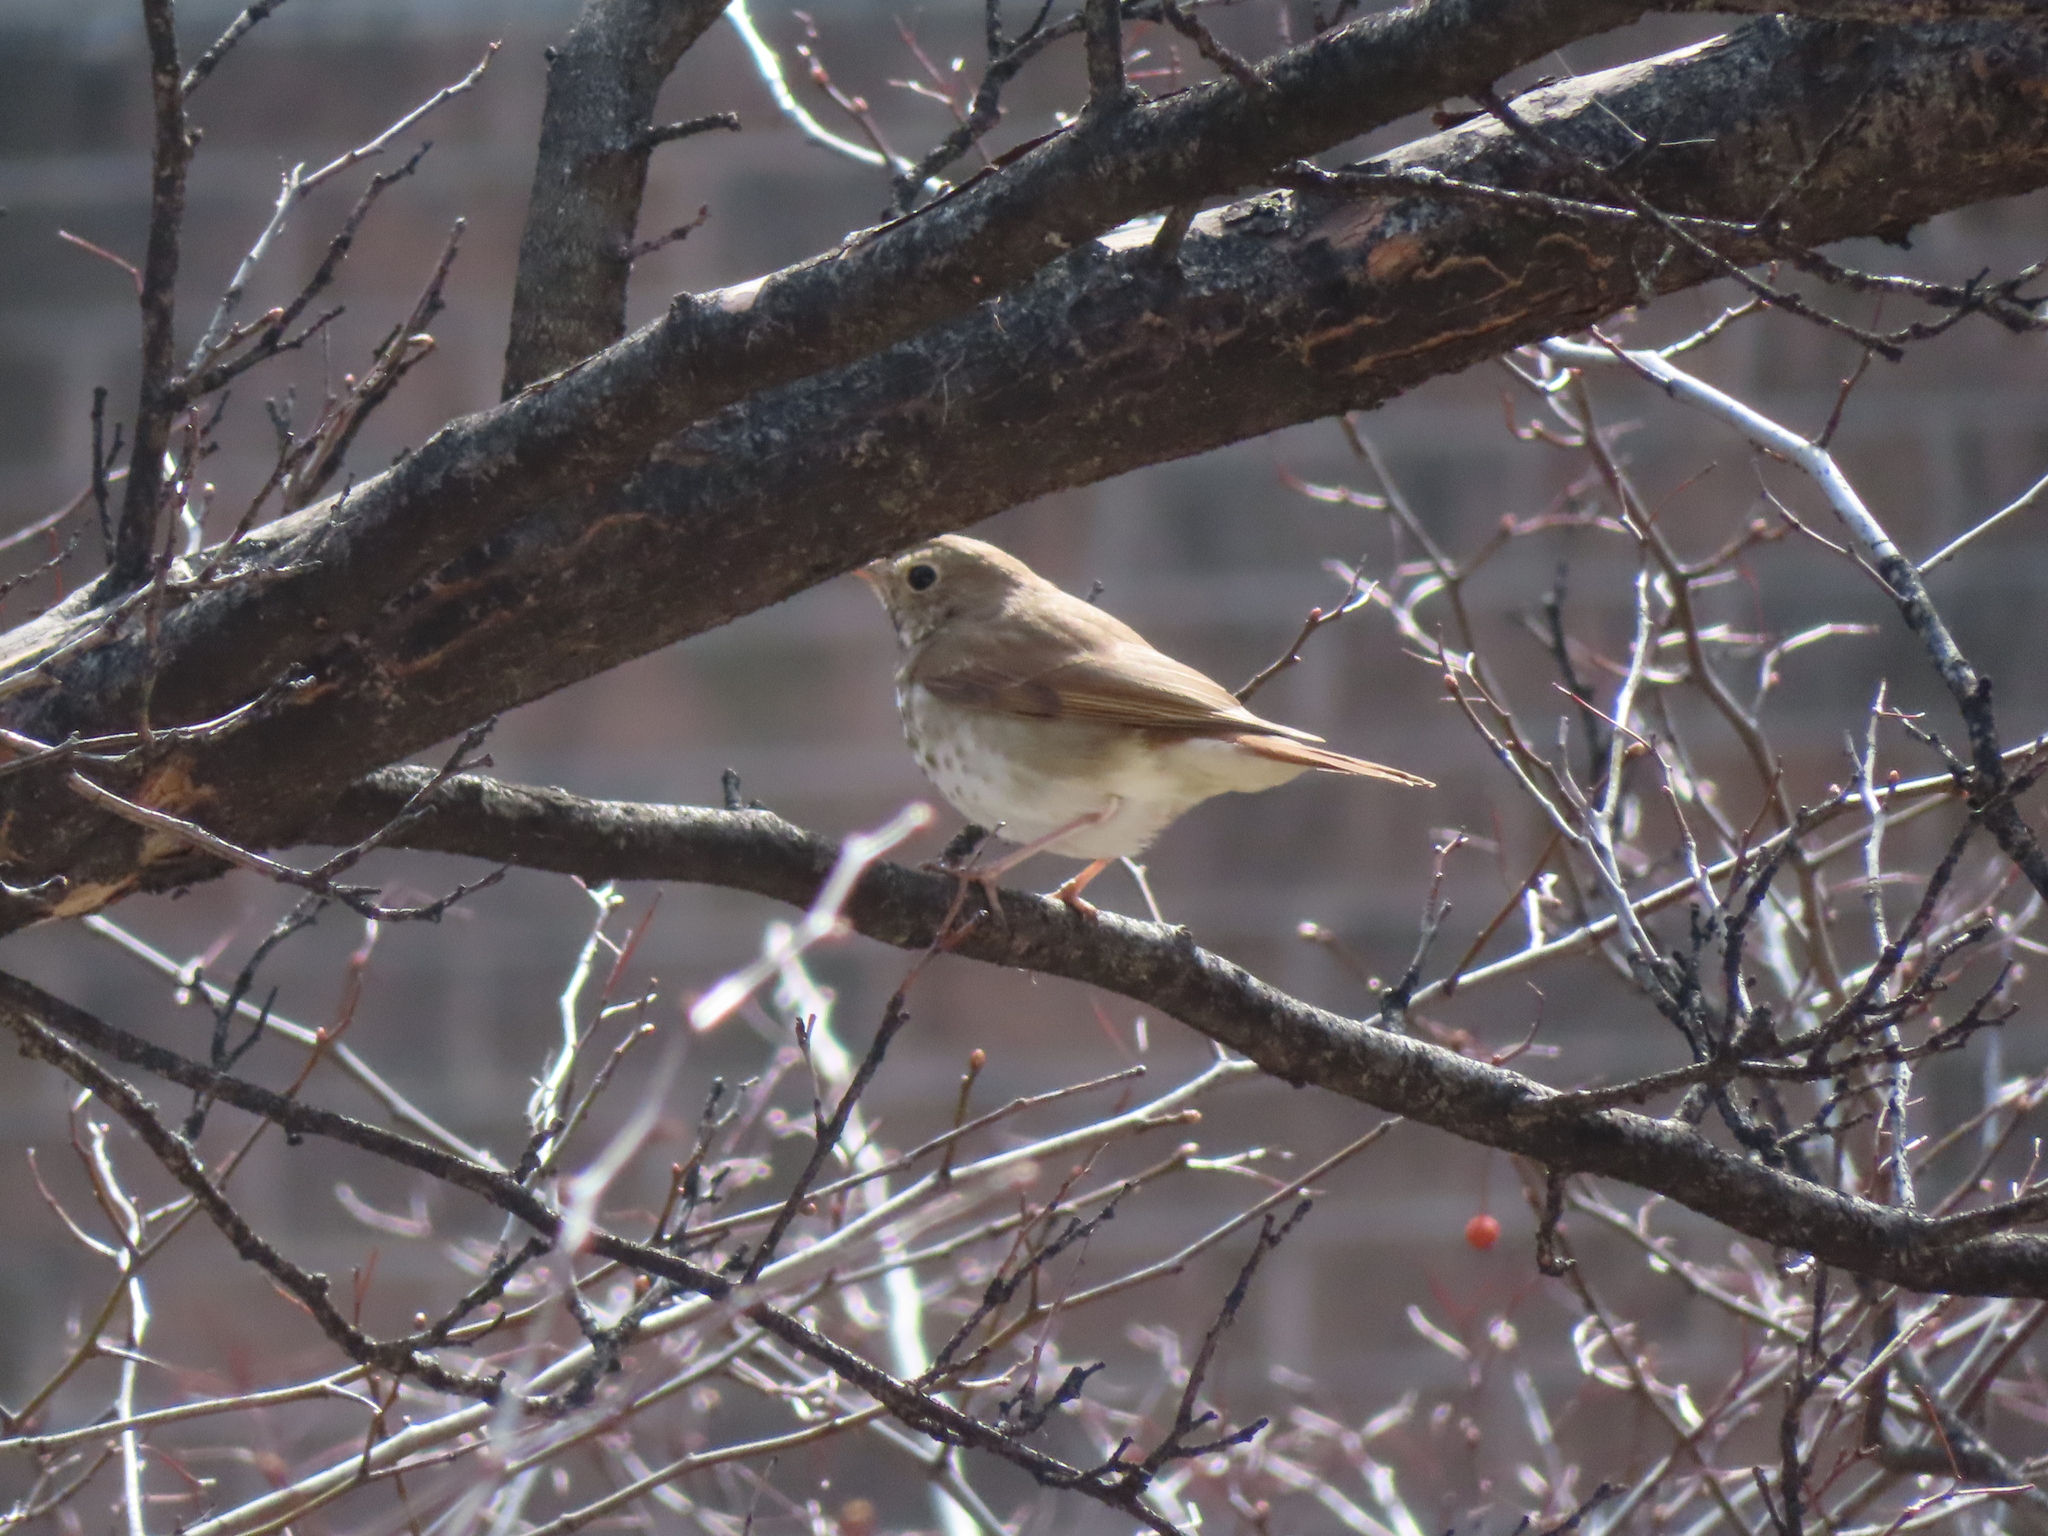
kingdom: Animalia
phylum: Chordata
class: Aves
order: Passeriformes
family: Turdidae
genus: Catharus
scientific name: Catharus guttatus
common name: Hermit thrush
